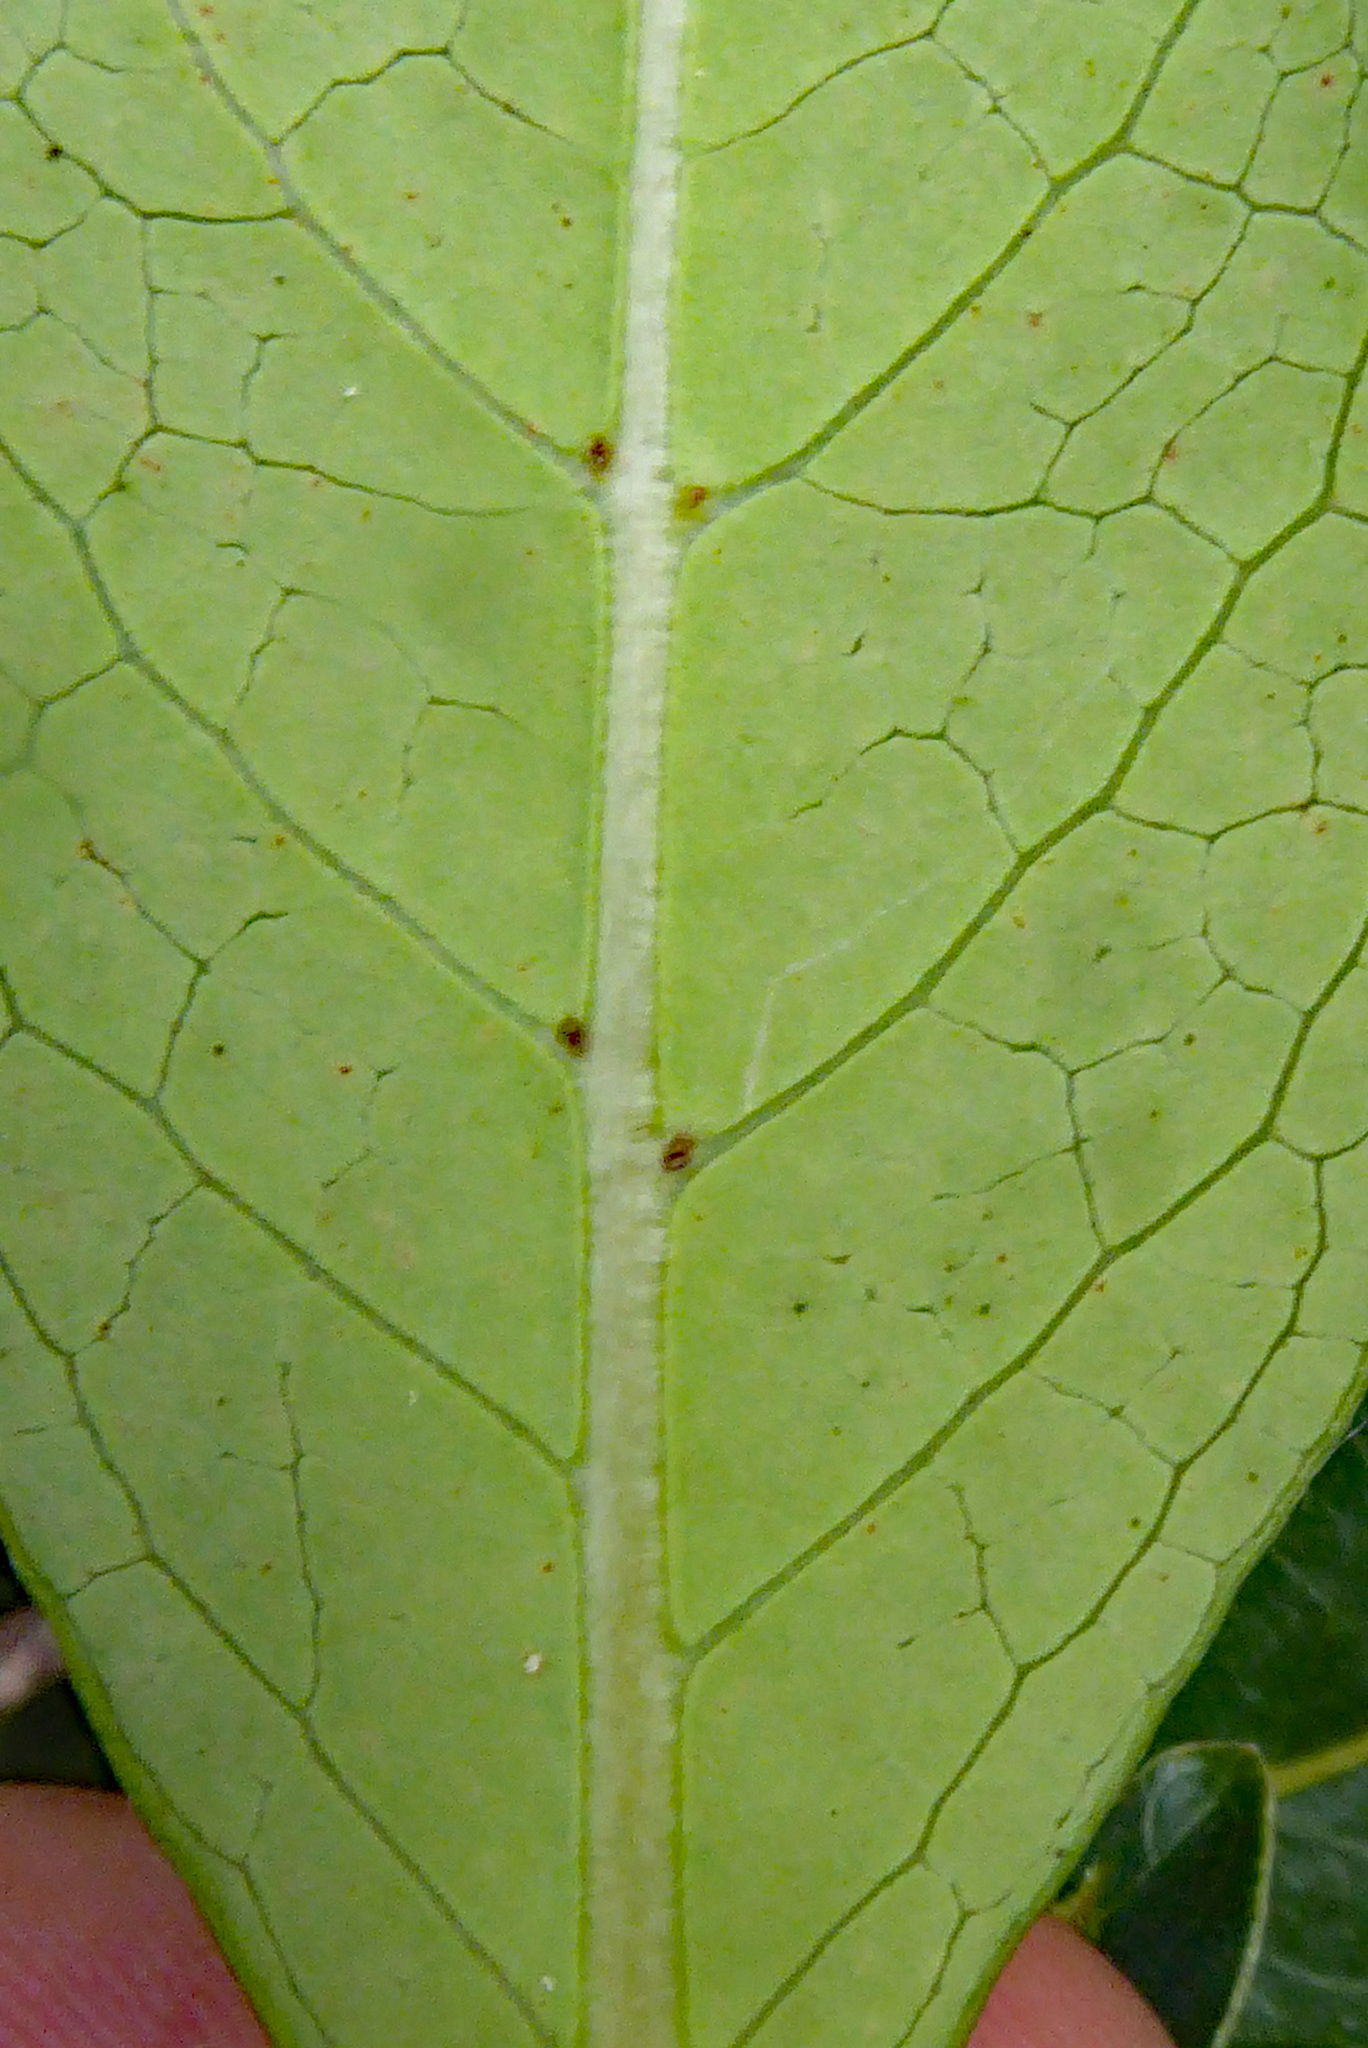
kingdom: Plantae
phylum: Tracheophyta
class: Magnoliopsida
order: Gentianales
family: Rubiaceae
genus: Coprosma
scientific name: Coprosma robusta
